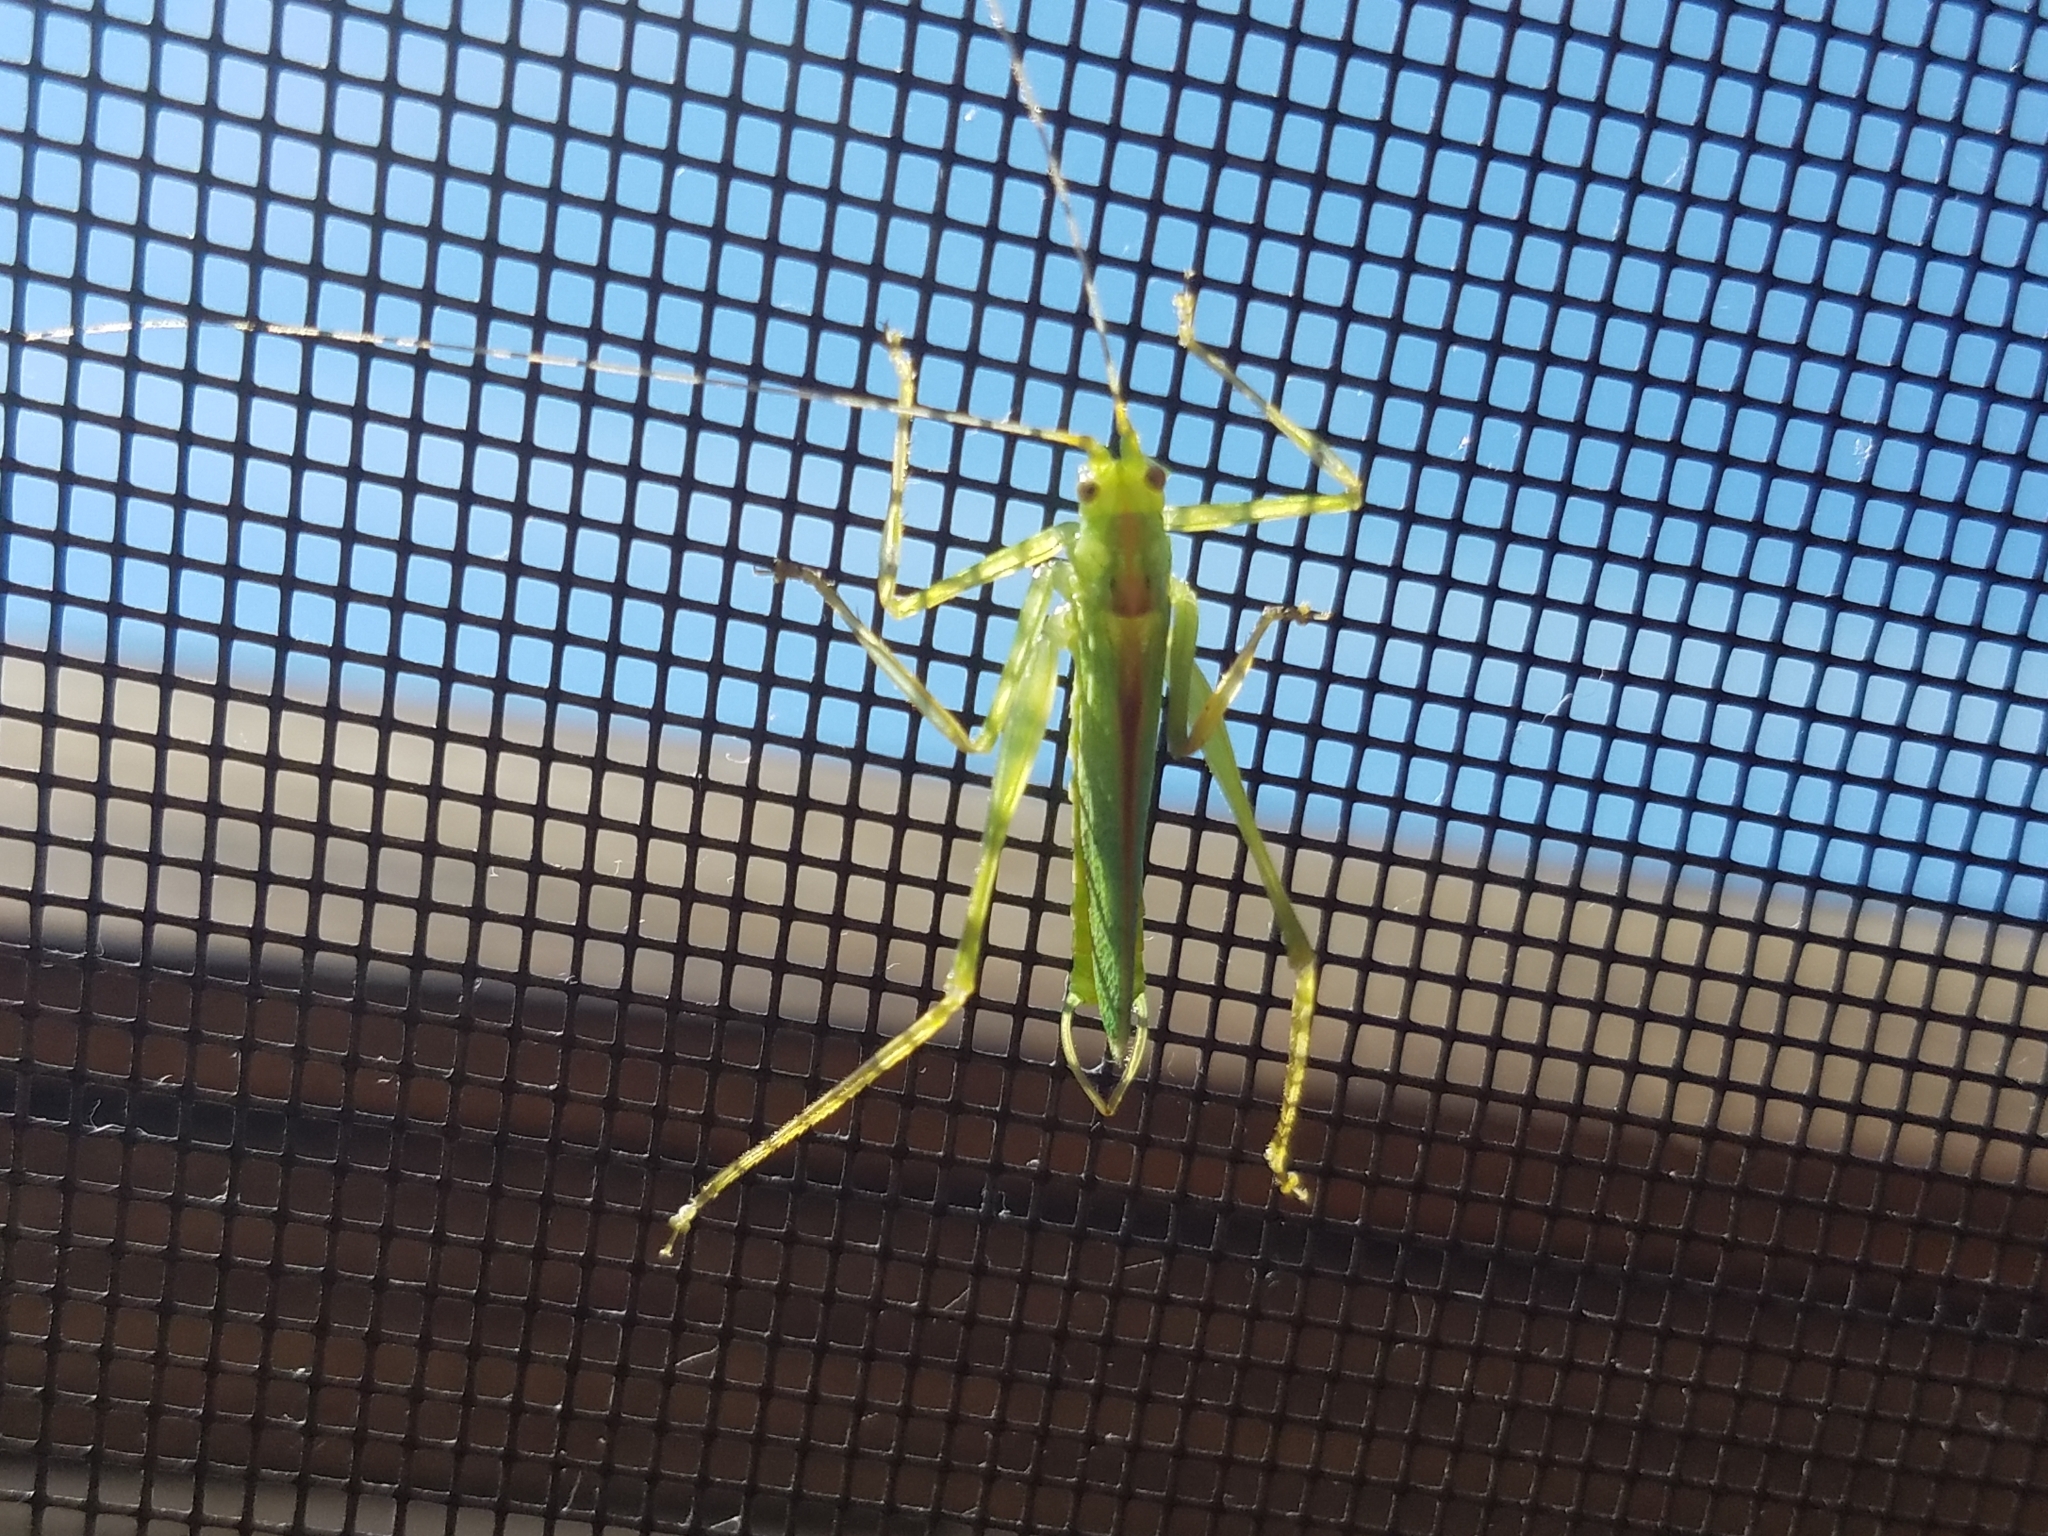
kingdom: Animalia
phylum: Arthropoda
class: Insecta
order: Orthoptera
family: Tettigoniidae
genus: Meconema
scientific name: Meconema thalassinum
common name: Oak bush-cricket
